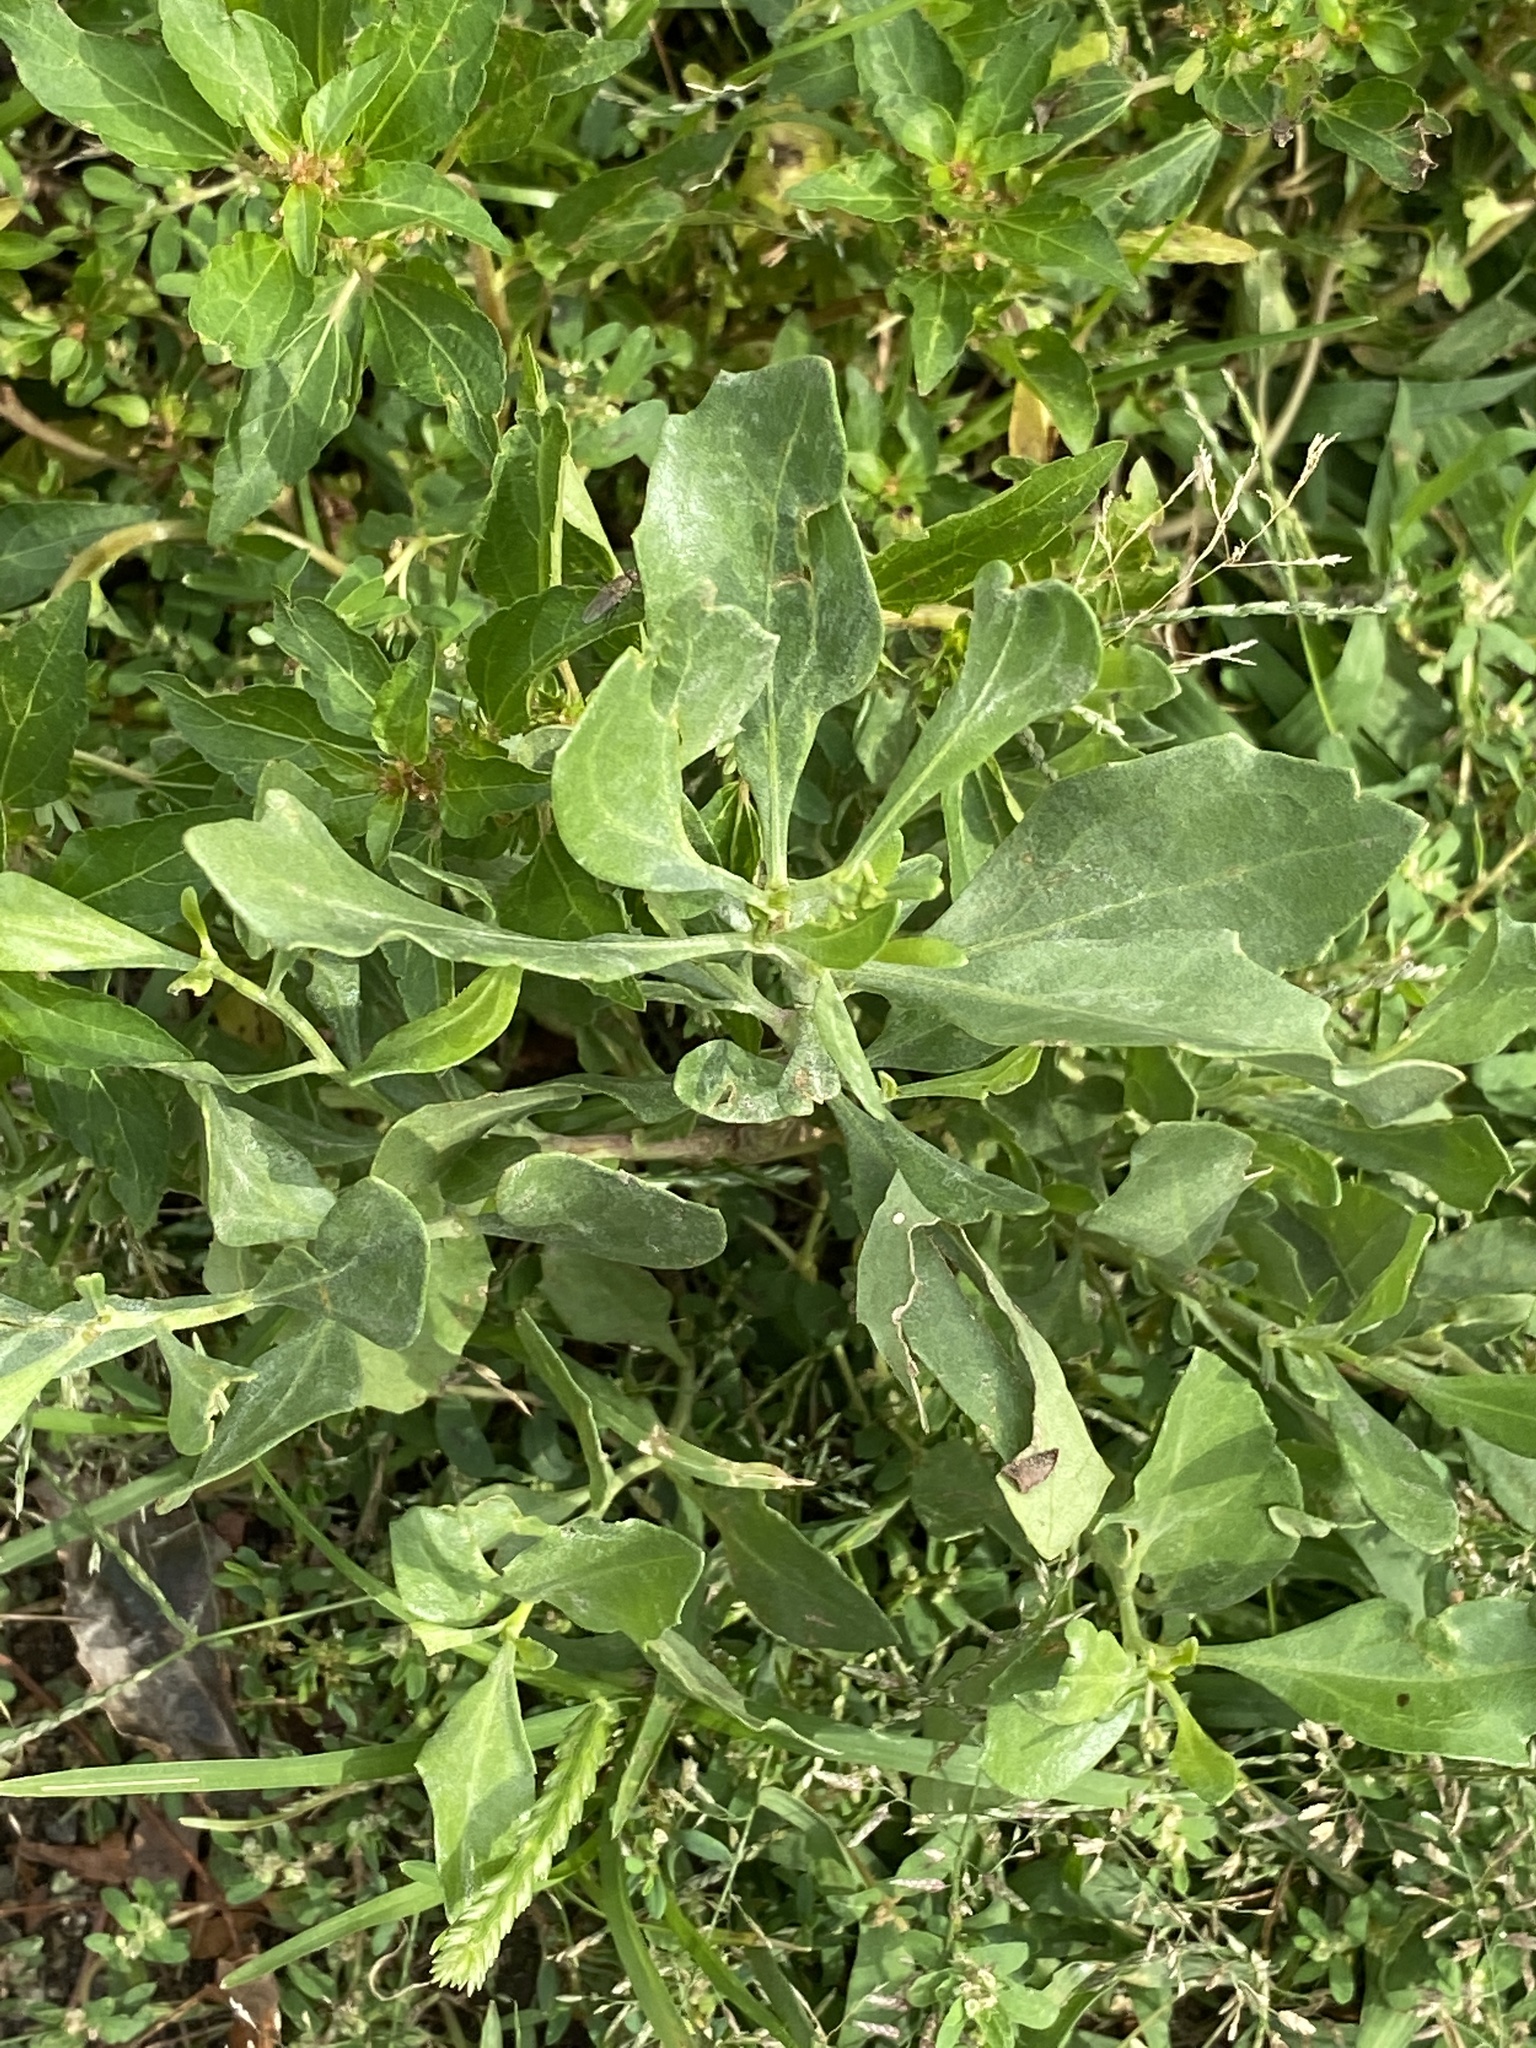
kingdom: Plantae
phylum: Tracheophyta
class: Magnoliopsida
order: Asterales
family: Asteraceae
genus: Baccharis
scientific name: Baccharis halimifolia
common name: Eastern baccharis
